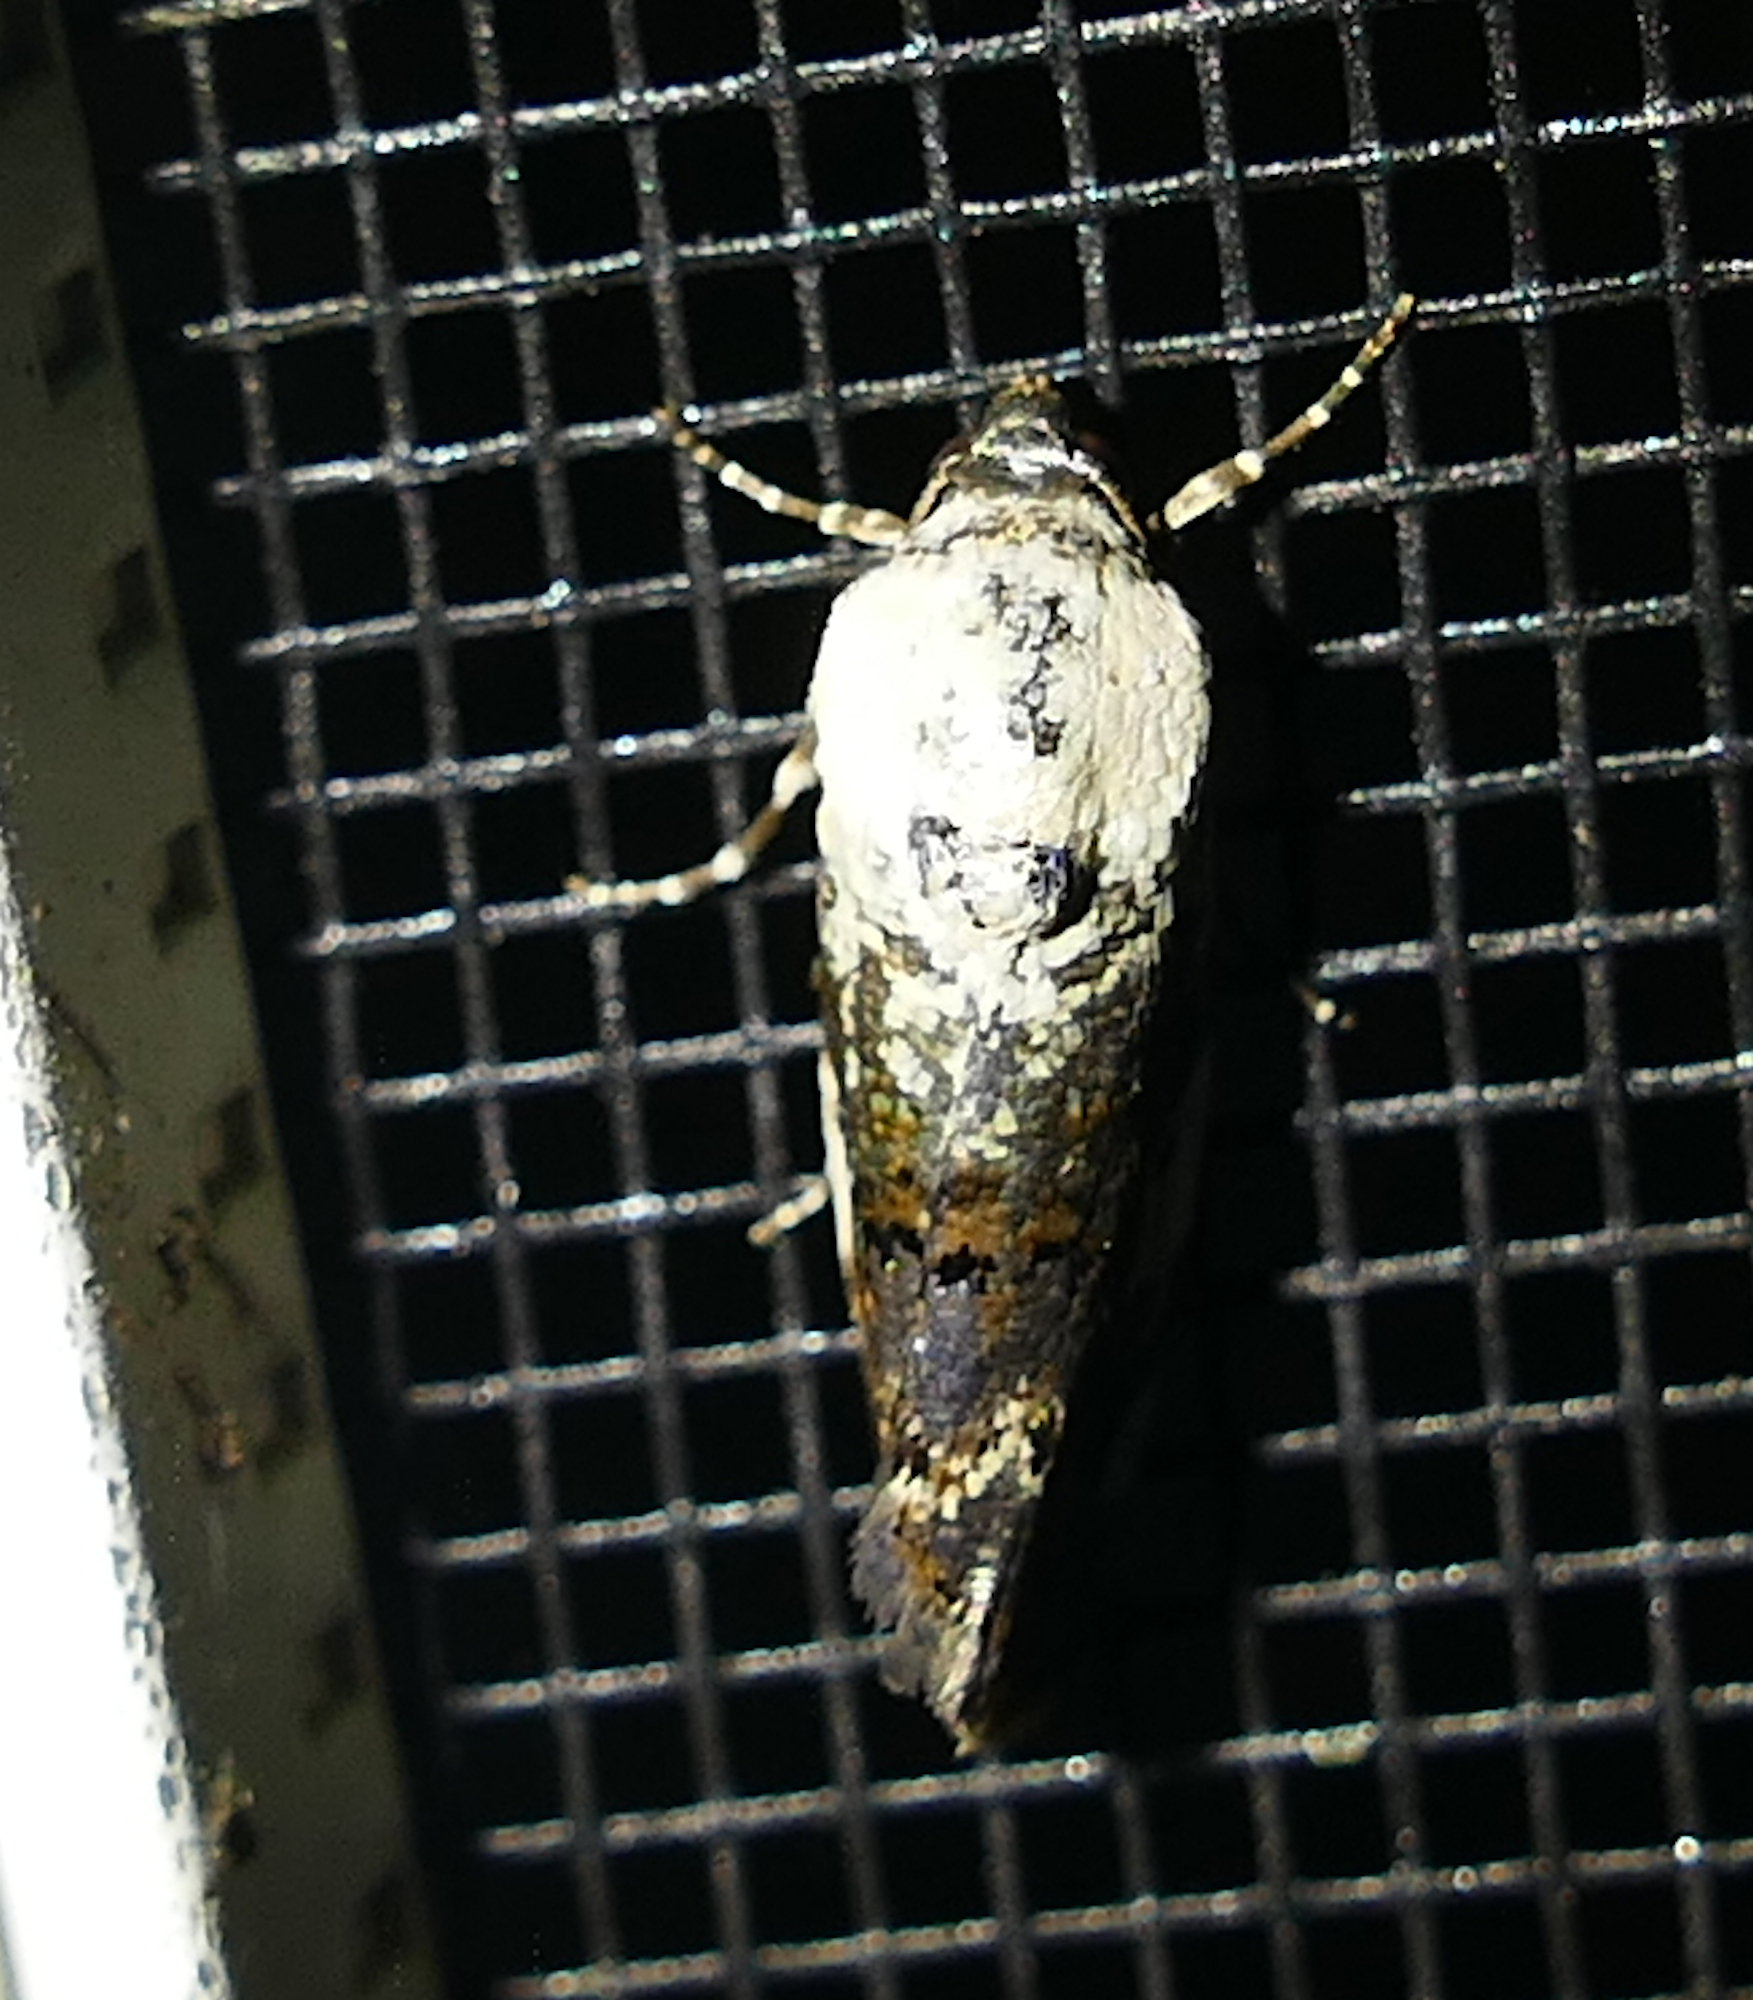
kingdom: Animalia
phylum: Arthropoda
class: Insecta
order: Lepidoptera
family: Noctuidae
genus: Acontia
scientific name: Acontia aprica
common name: Nun
